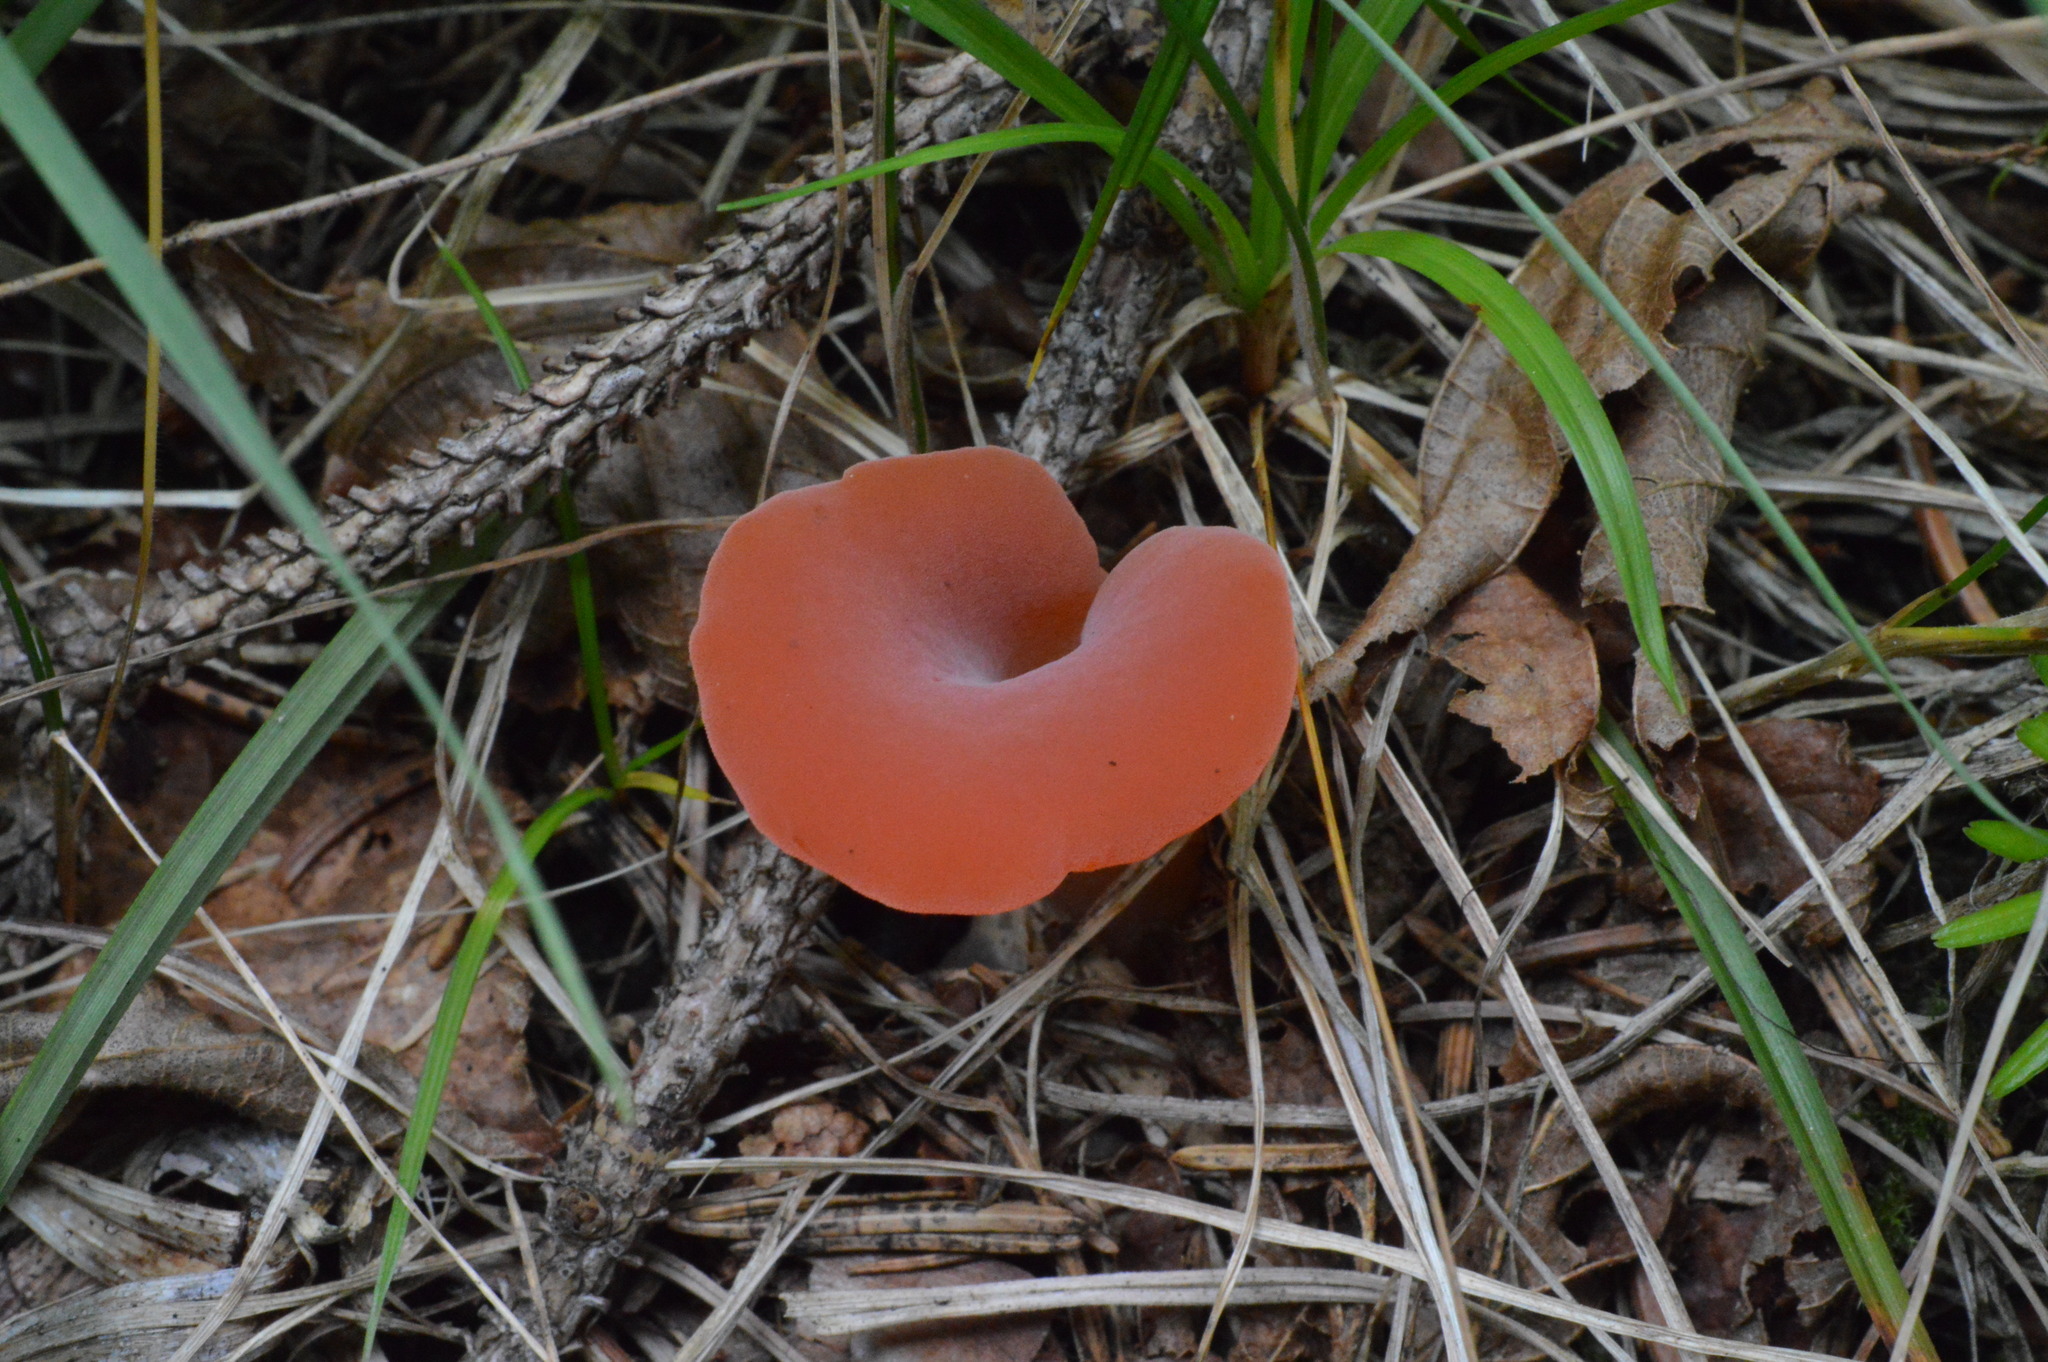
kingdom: Fungi
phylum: Basidiomycota
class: Agaricomycetes
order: Auriculariales
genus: Guepinia
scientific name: Guepinia helvelloides
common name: Salmon salad
